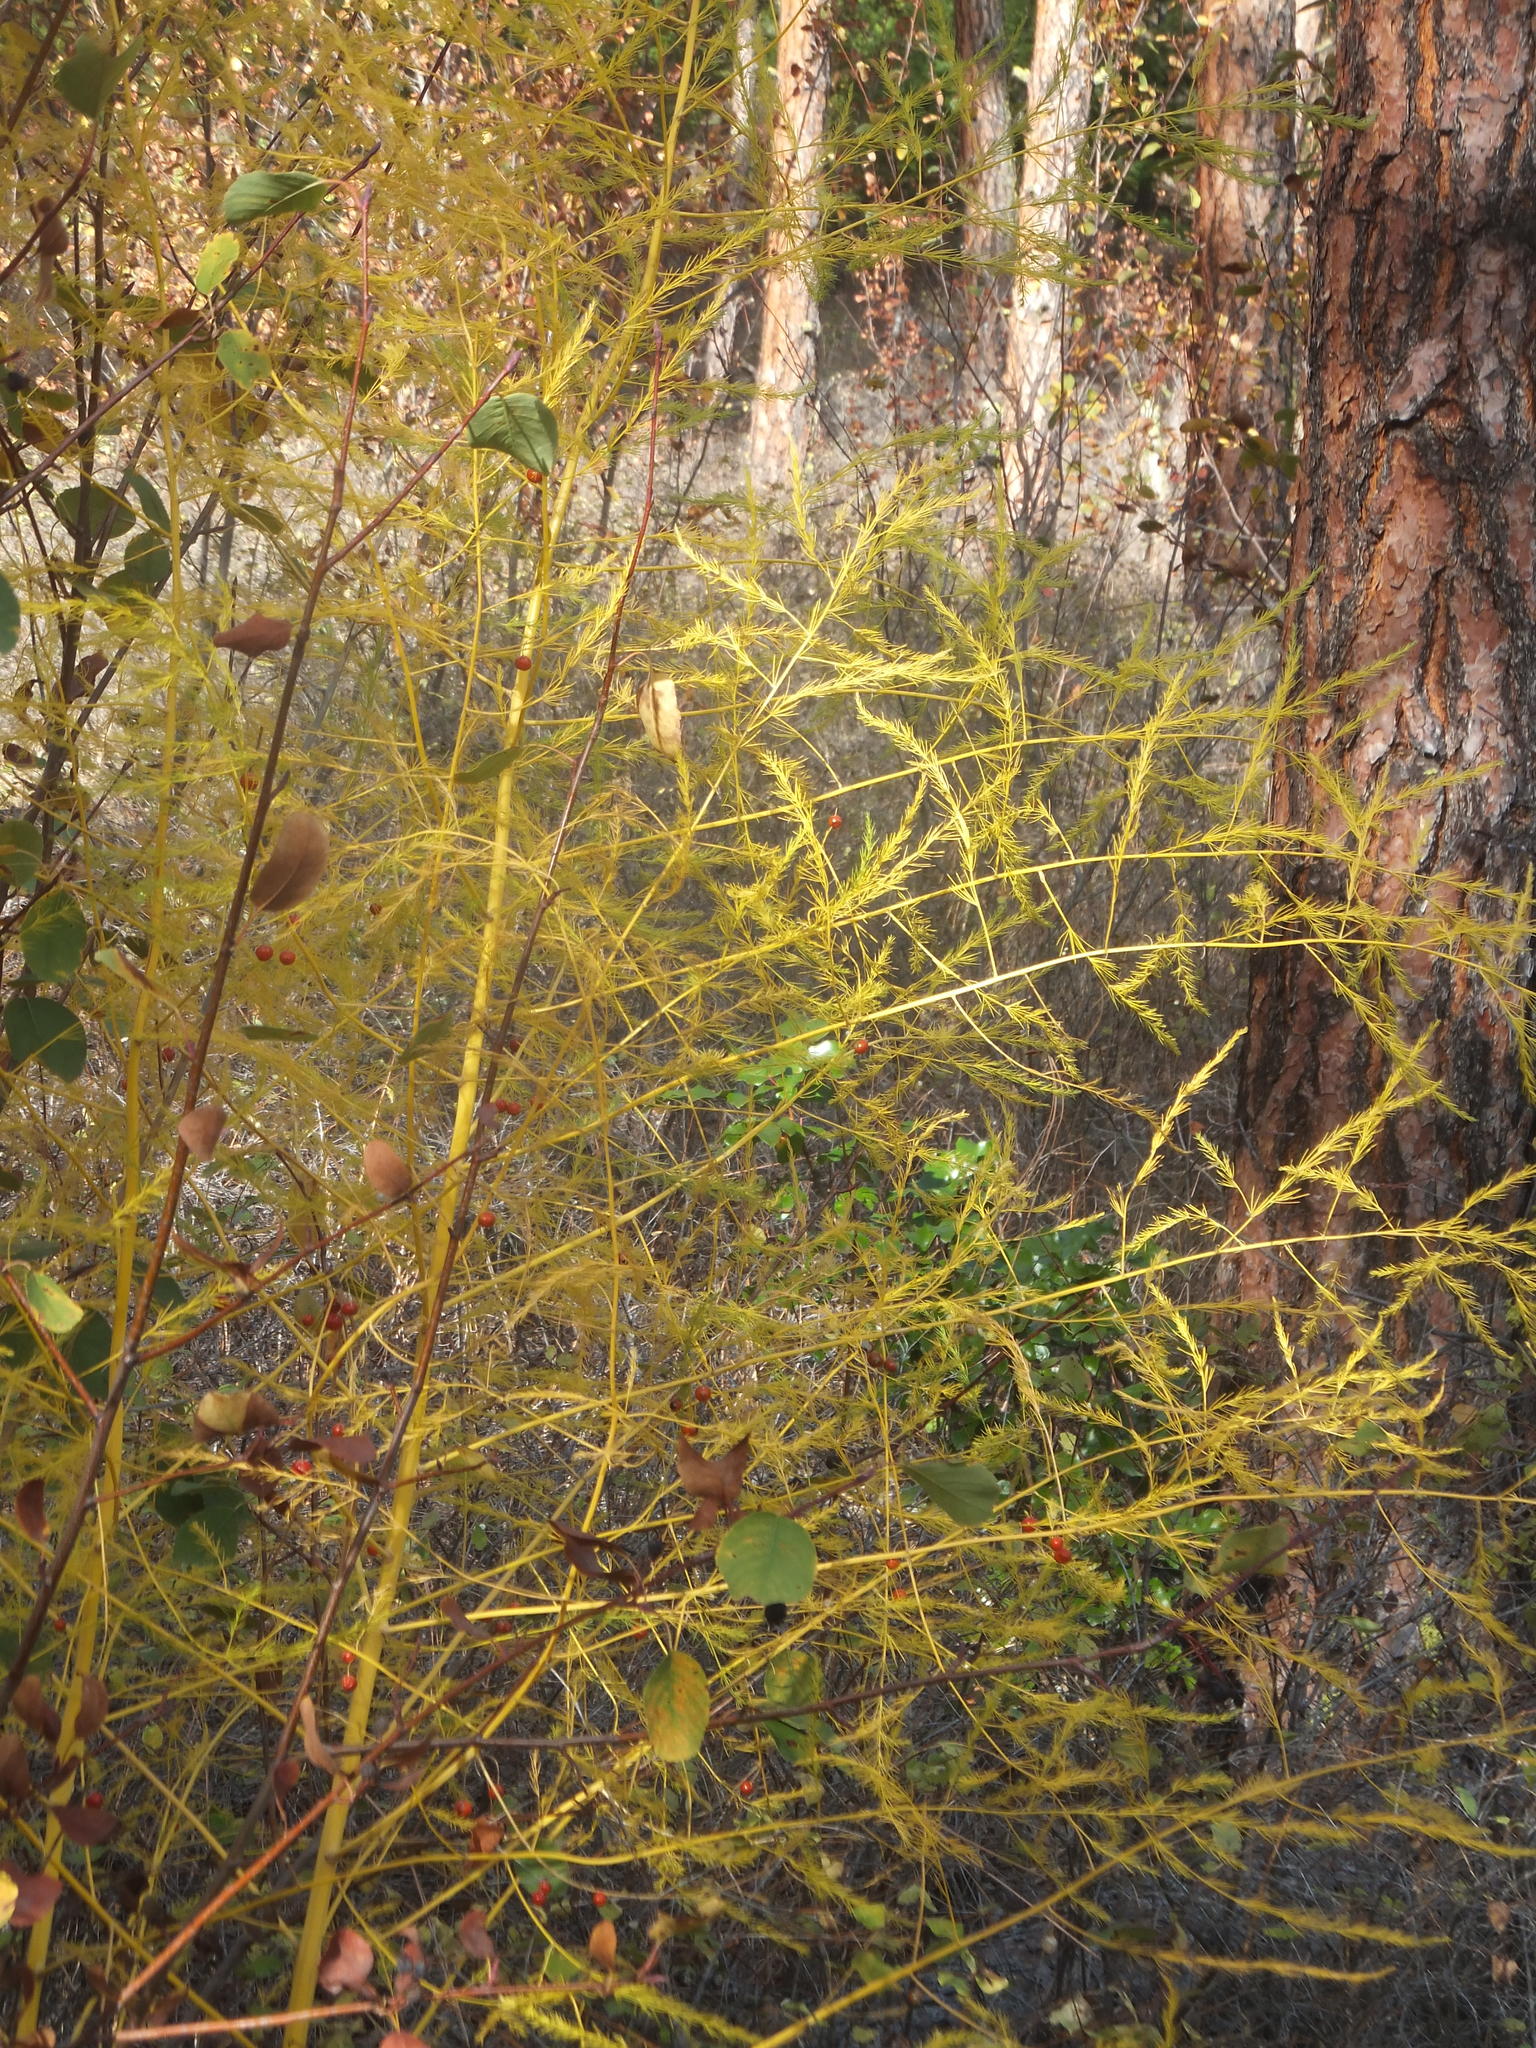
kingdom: Plantae
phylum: Tracheophyta
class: Liliopsida
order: Asparagales
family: Asparagaceae
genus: Asparagus
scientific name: Asparagus officinalis
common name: Garden asparagus
